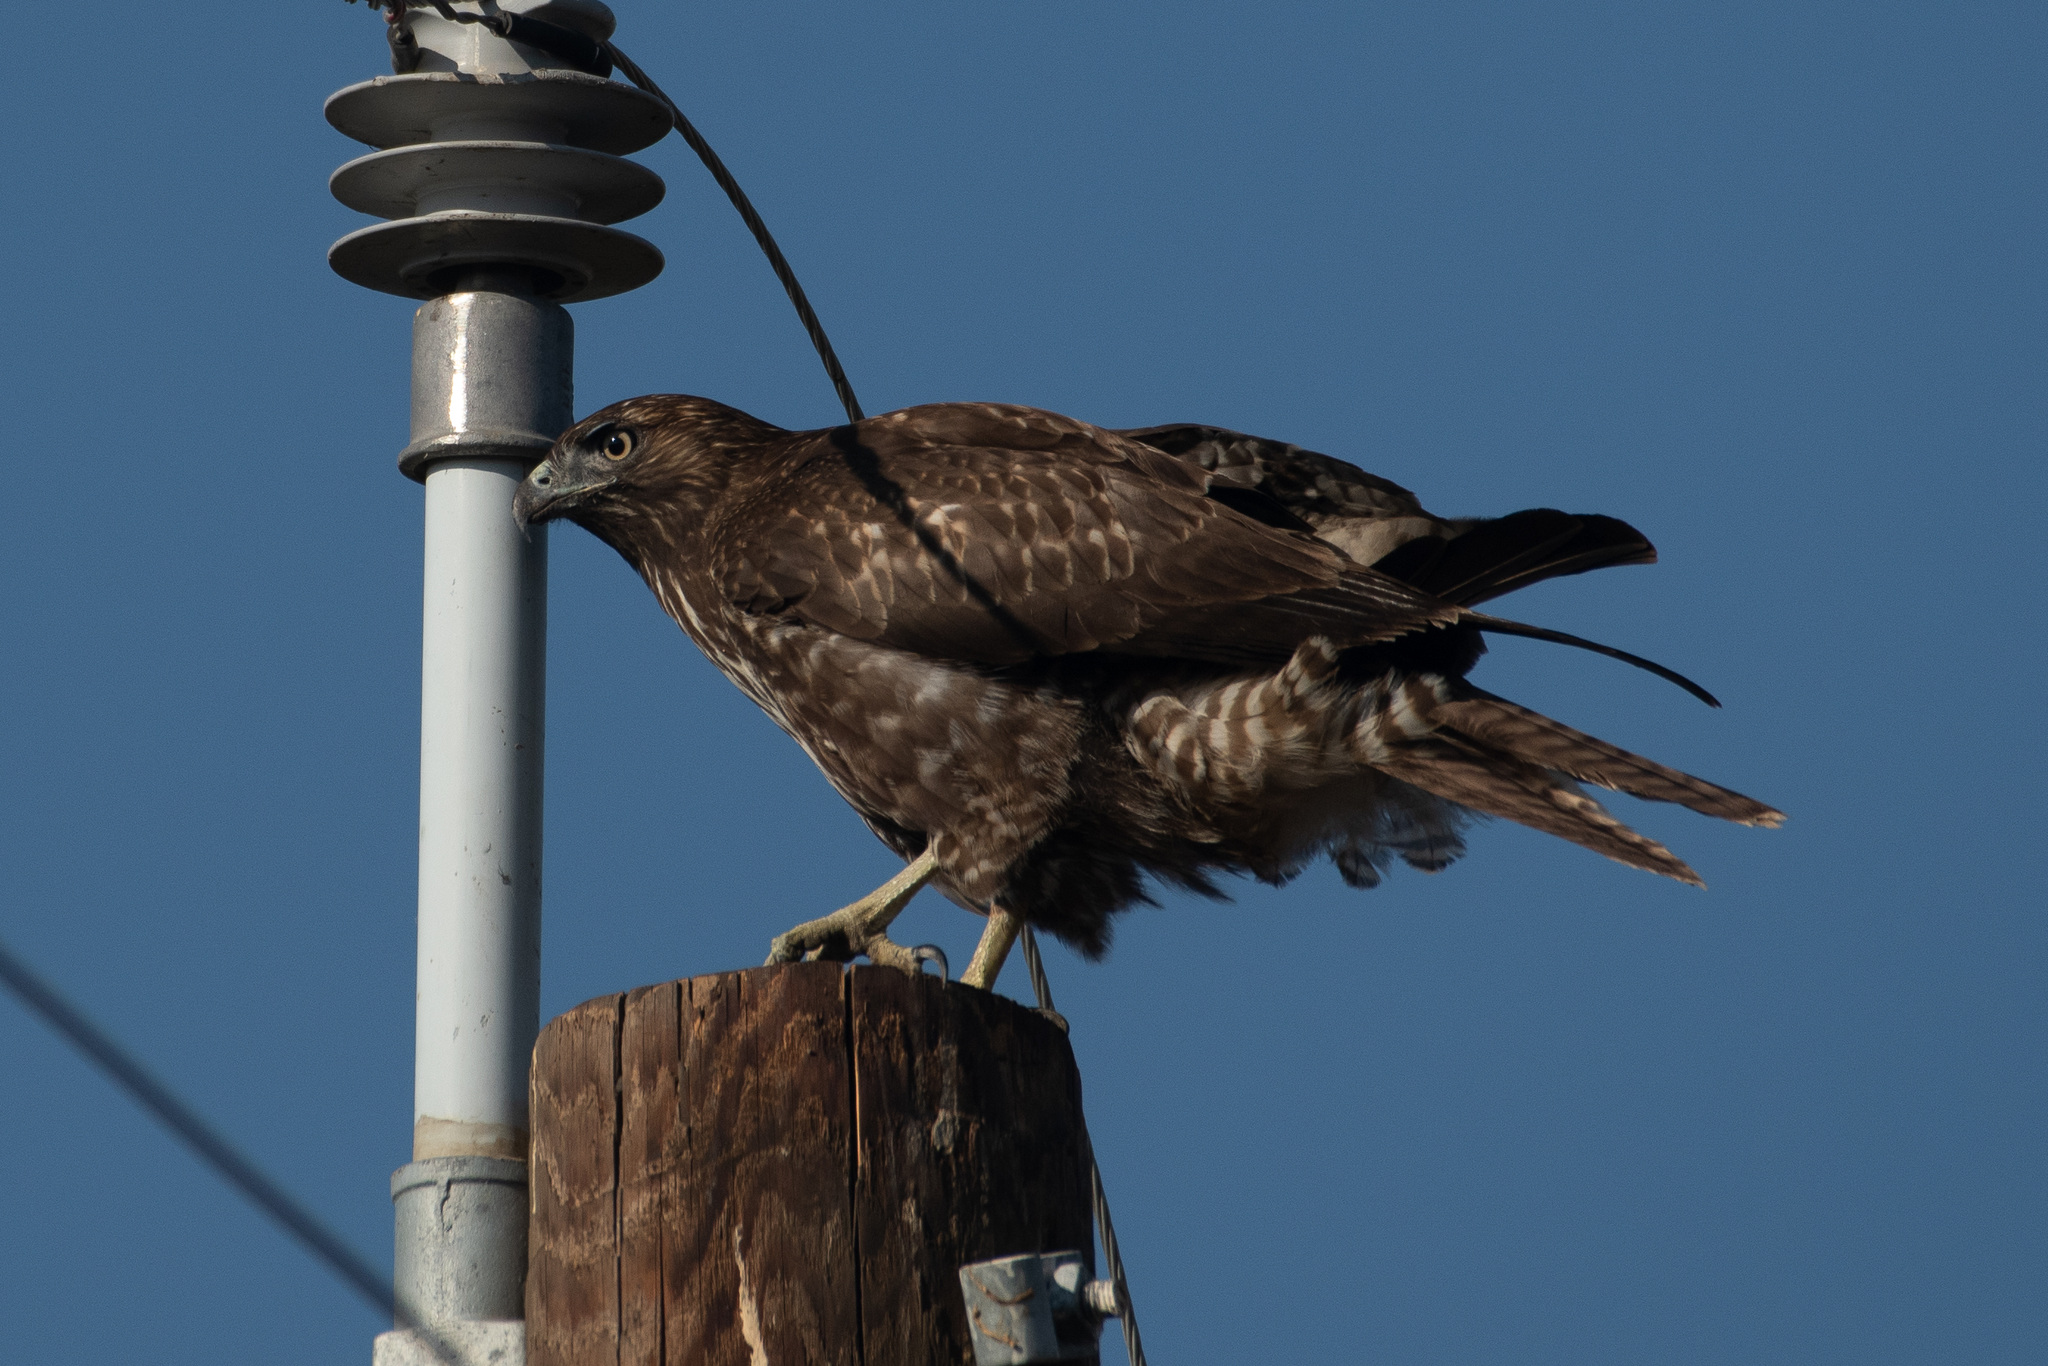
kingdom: Animalia
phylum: Chordata
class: Aves
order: Accipitriformes
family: Accipitridae
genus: Buteo
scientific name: Buteo jamaicensis
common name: Red-tailed hawk
